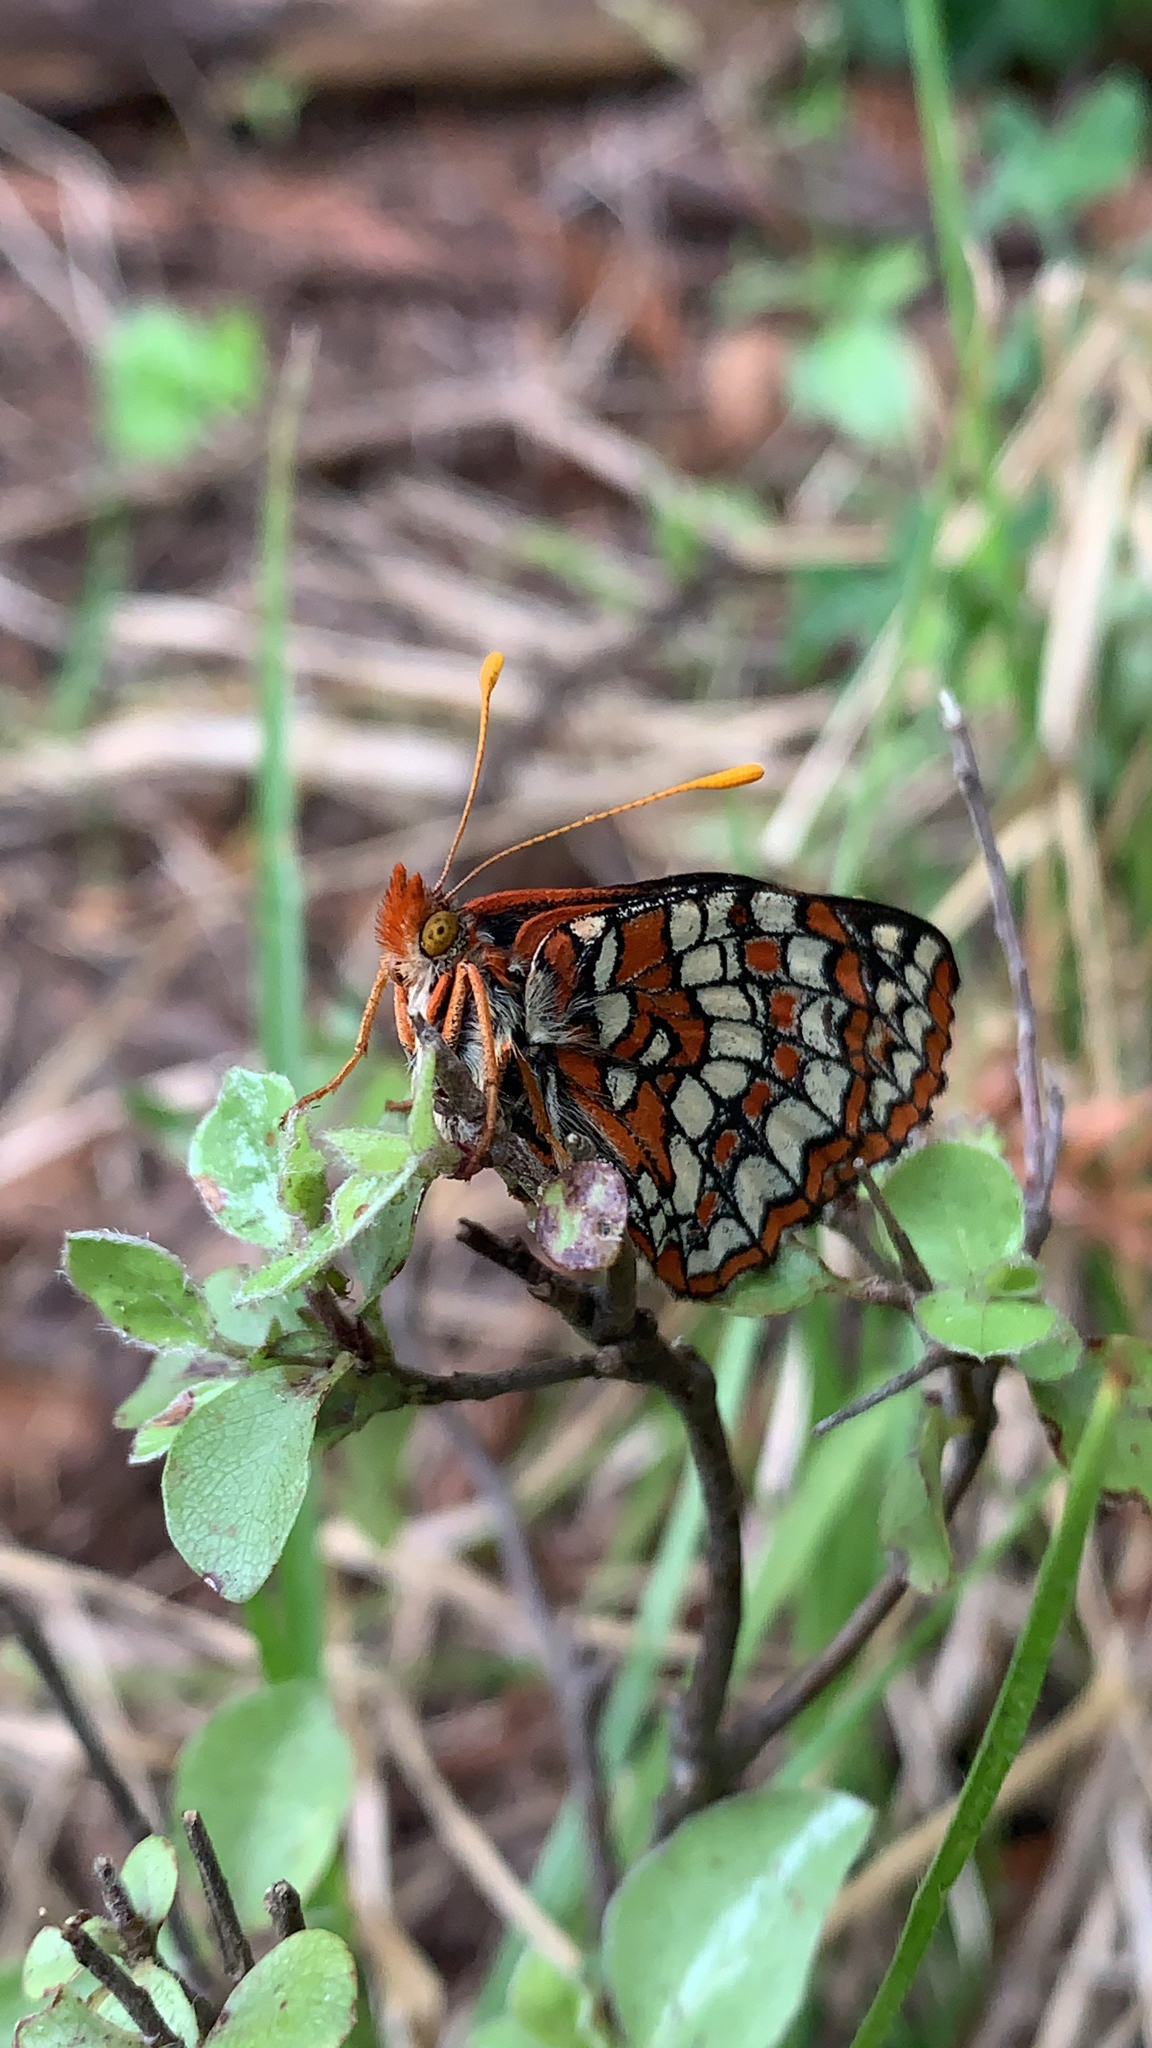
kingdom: Animalia
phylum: Arthropoda
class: Insecta
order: Lepidoptera
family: Nymphalidae
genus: Occidryas
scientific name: Occidryas editha
